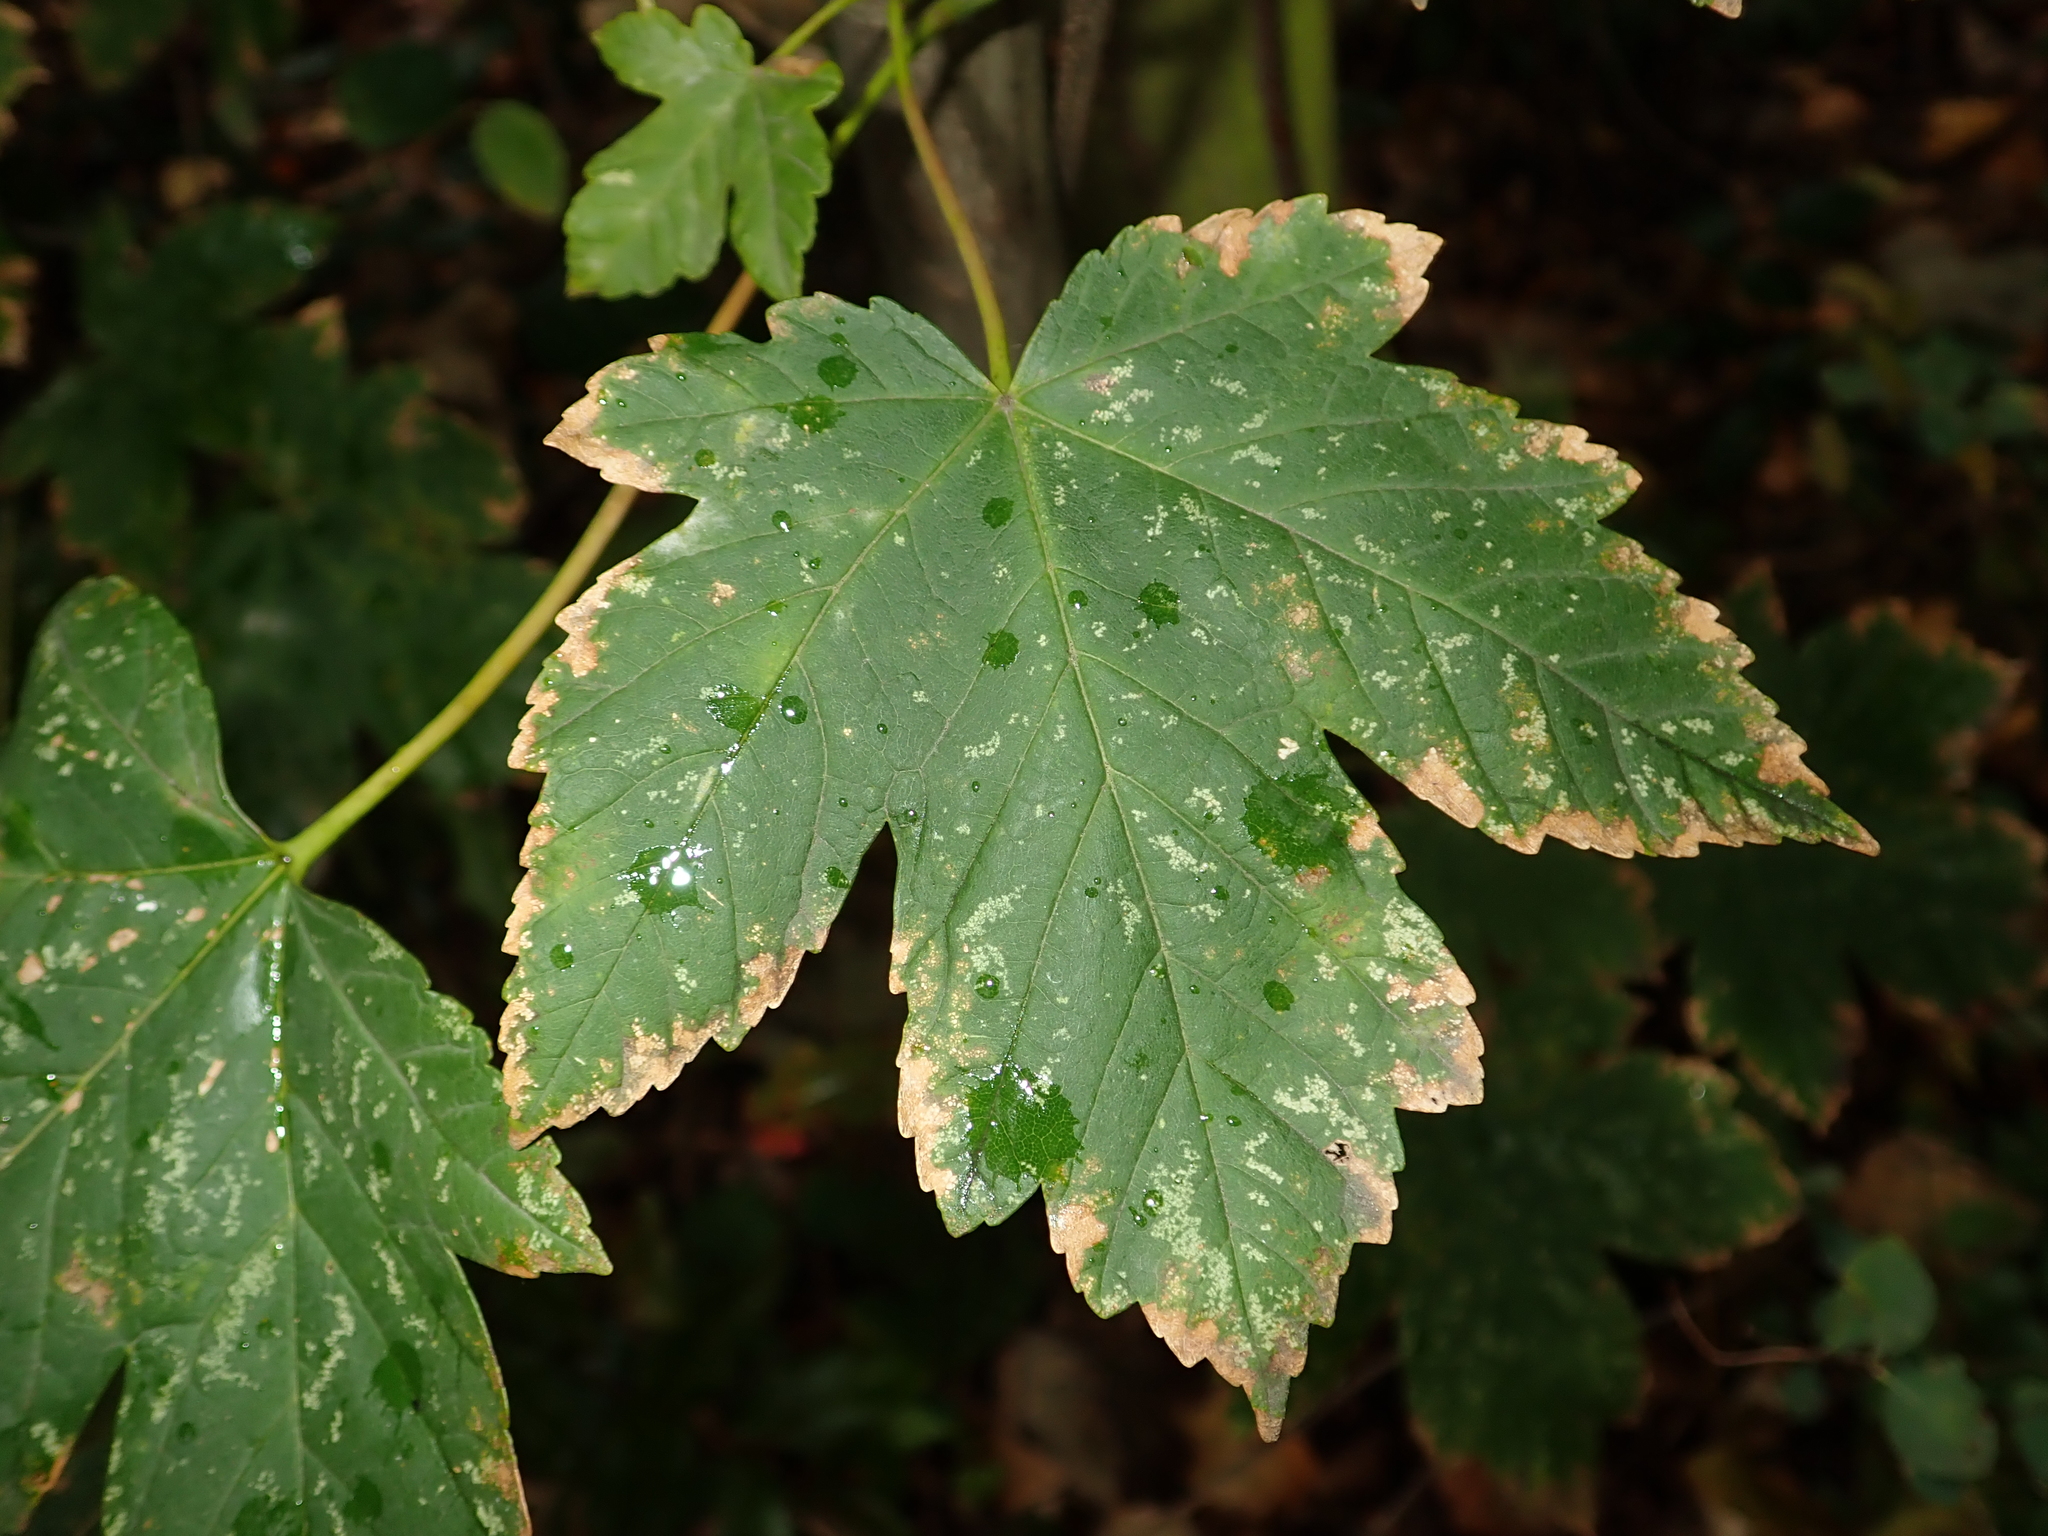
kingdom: Plantae
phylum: Tracheophyta
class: Magnoliopsida
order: Sapindales
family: Sapindaceae
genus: Acer
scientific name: Acer pseudoplatanus
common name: Sycamore
